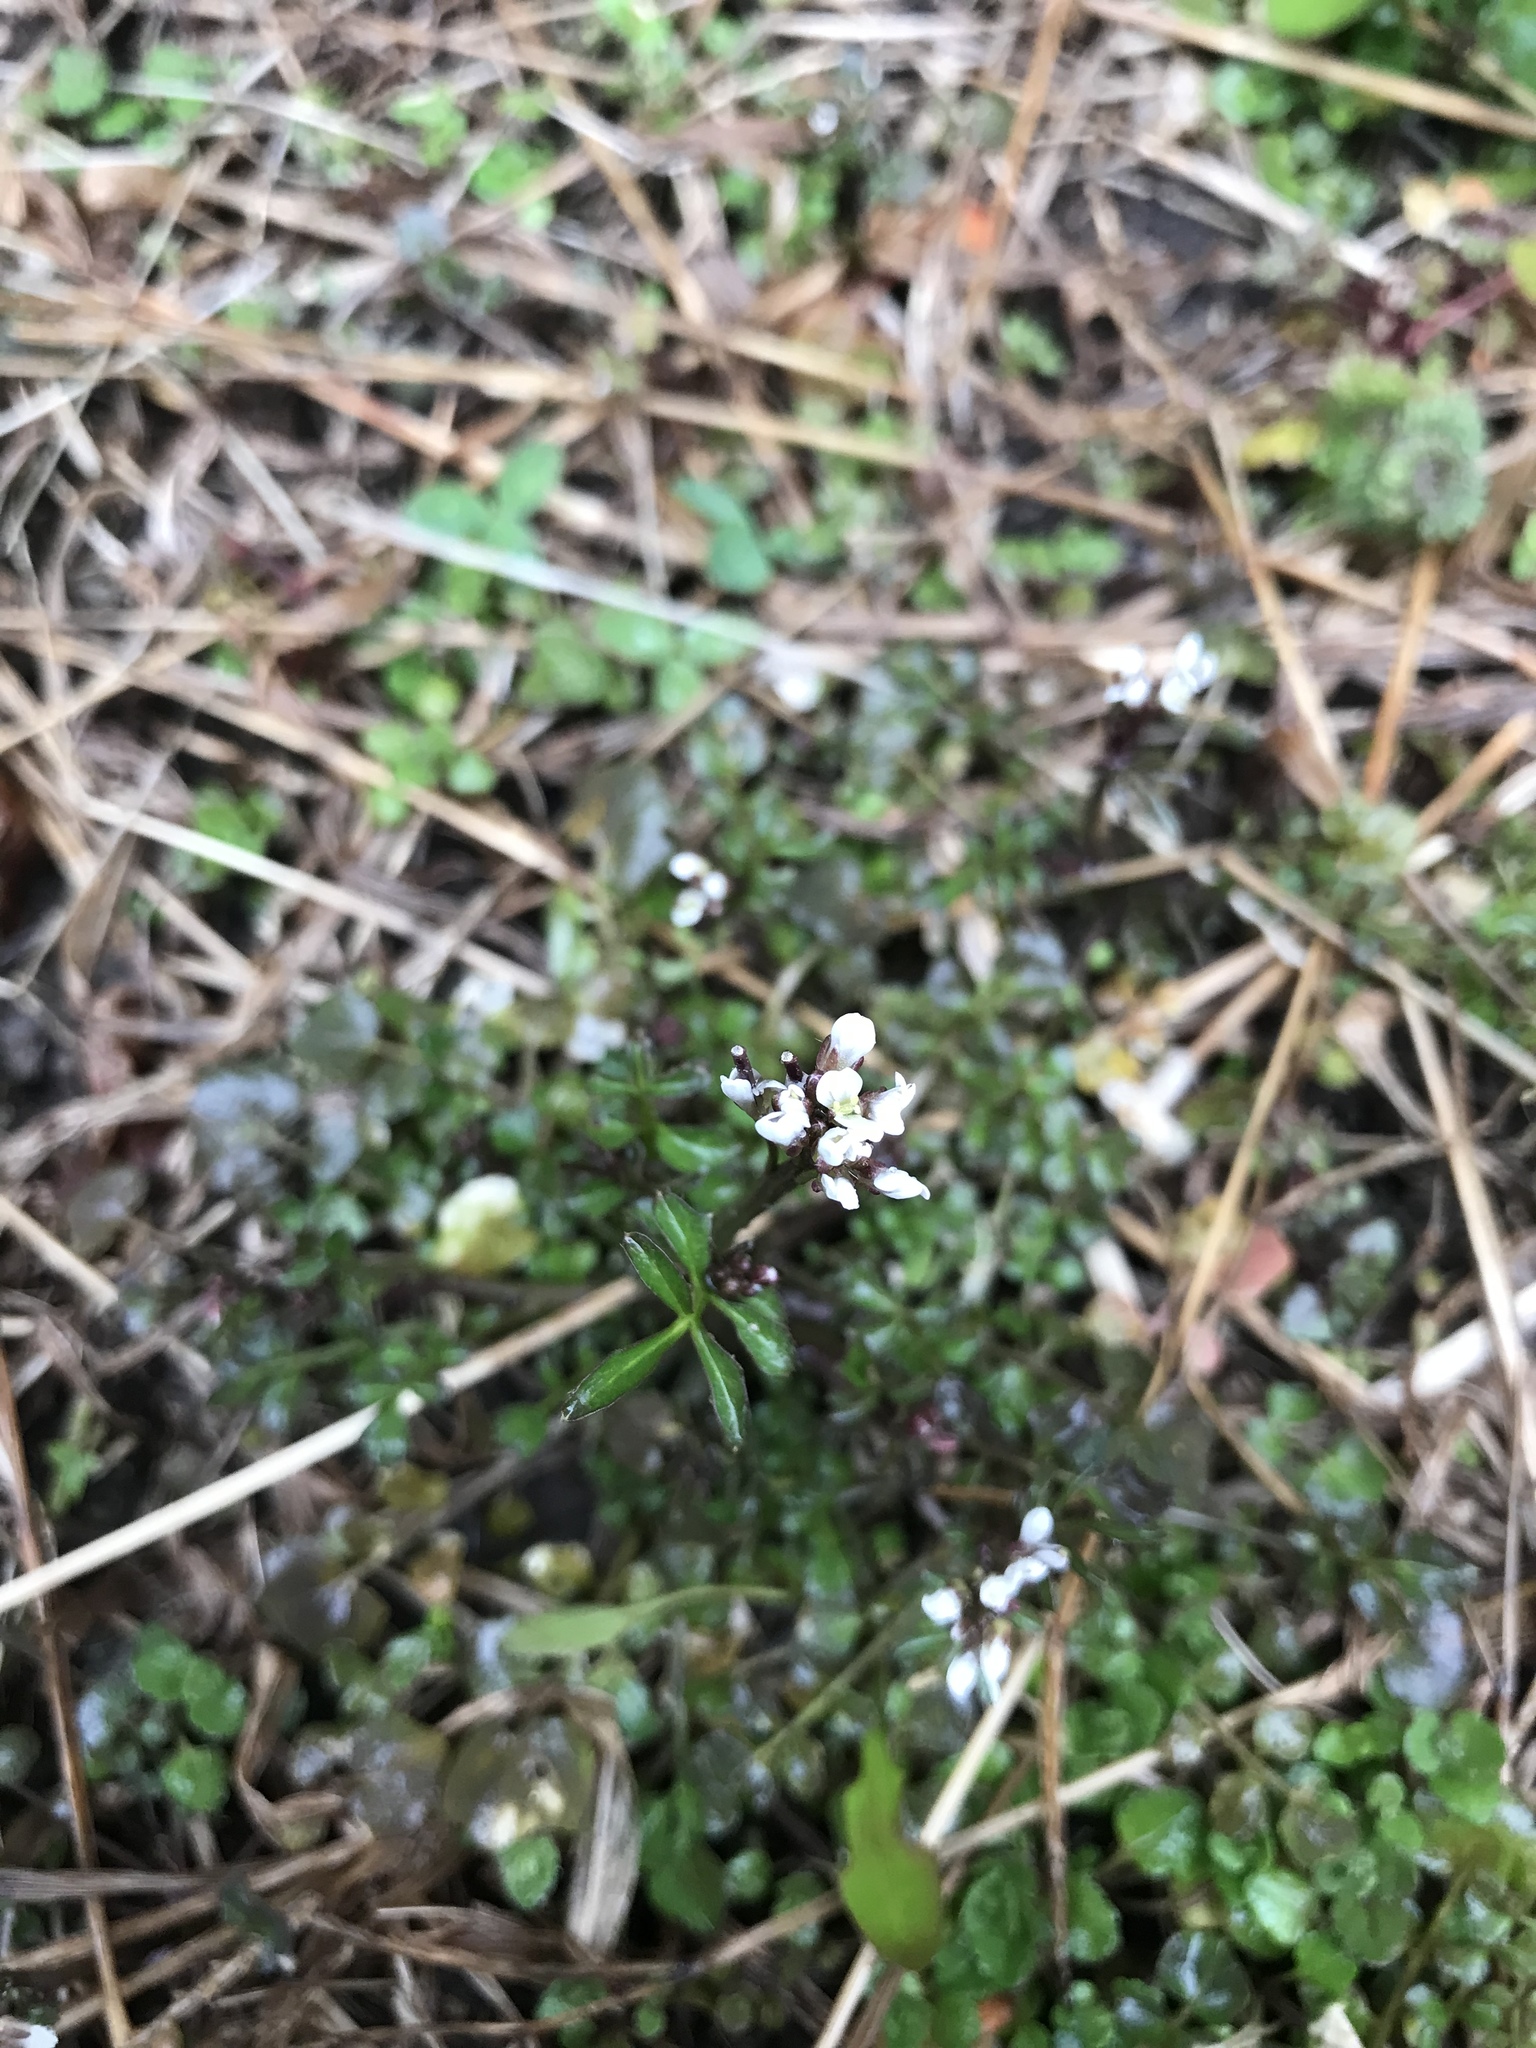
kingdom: Plantae
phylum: Tracheophyta
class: Magnoliopsida
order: Brassicales
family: Brassicaceae
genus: Cardamine
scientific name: Cardamine hirsuta
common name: Hairy bittercress
